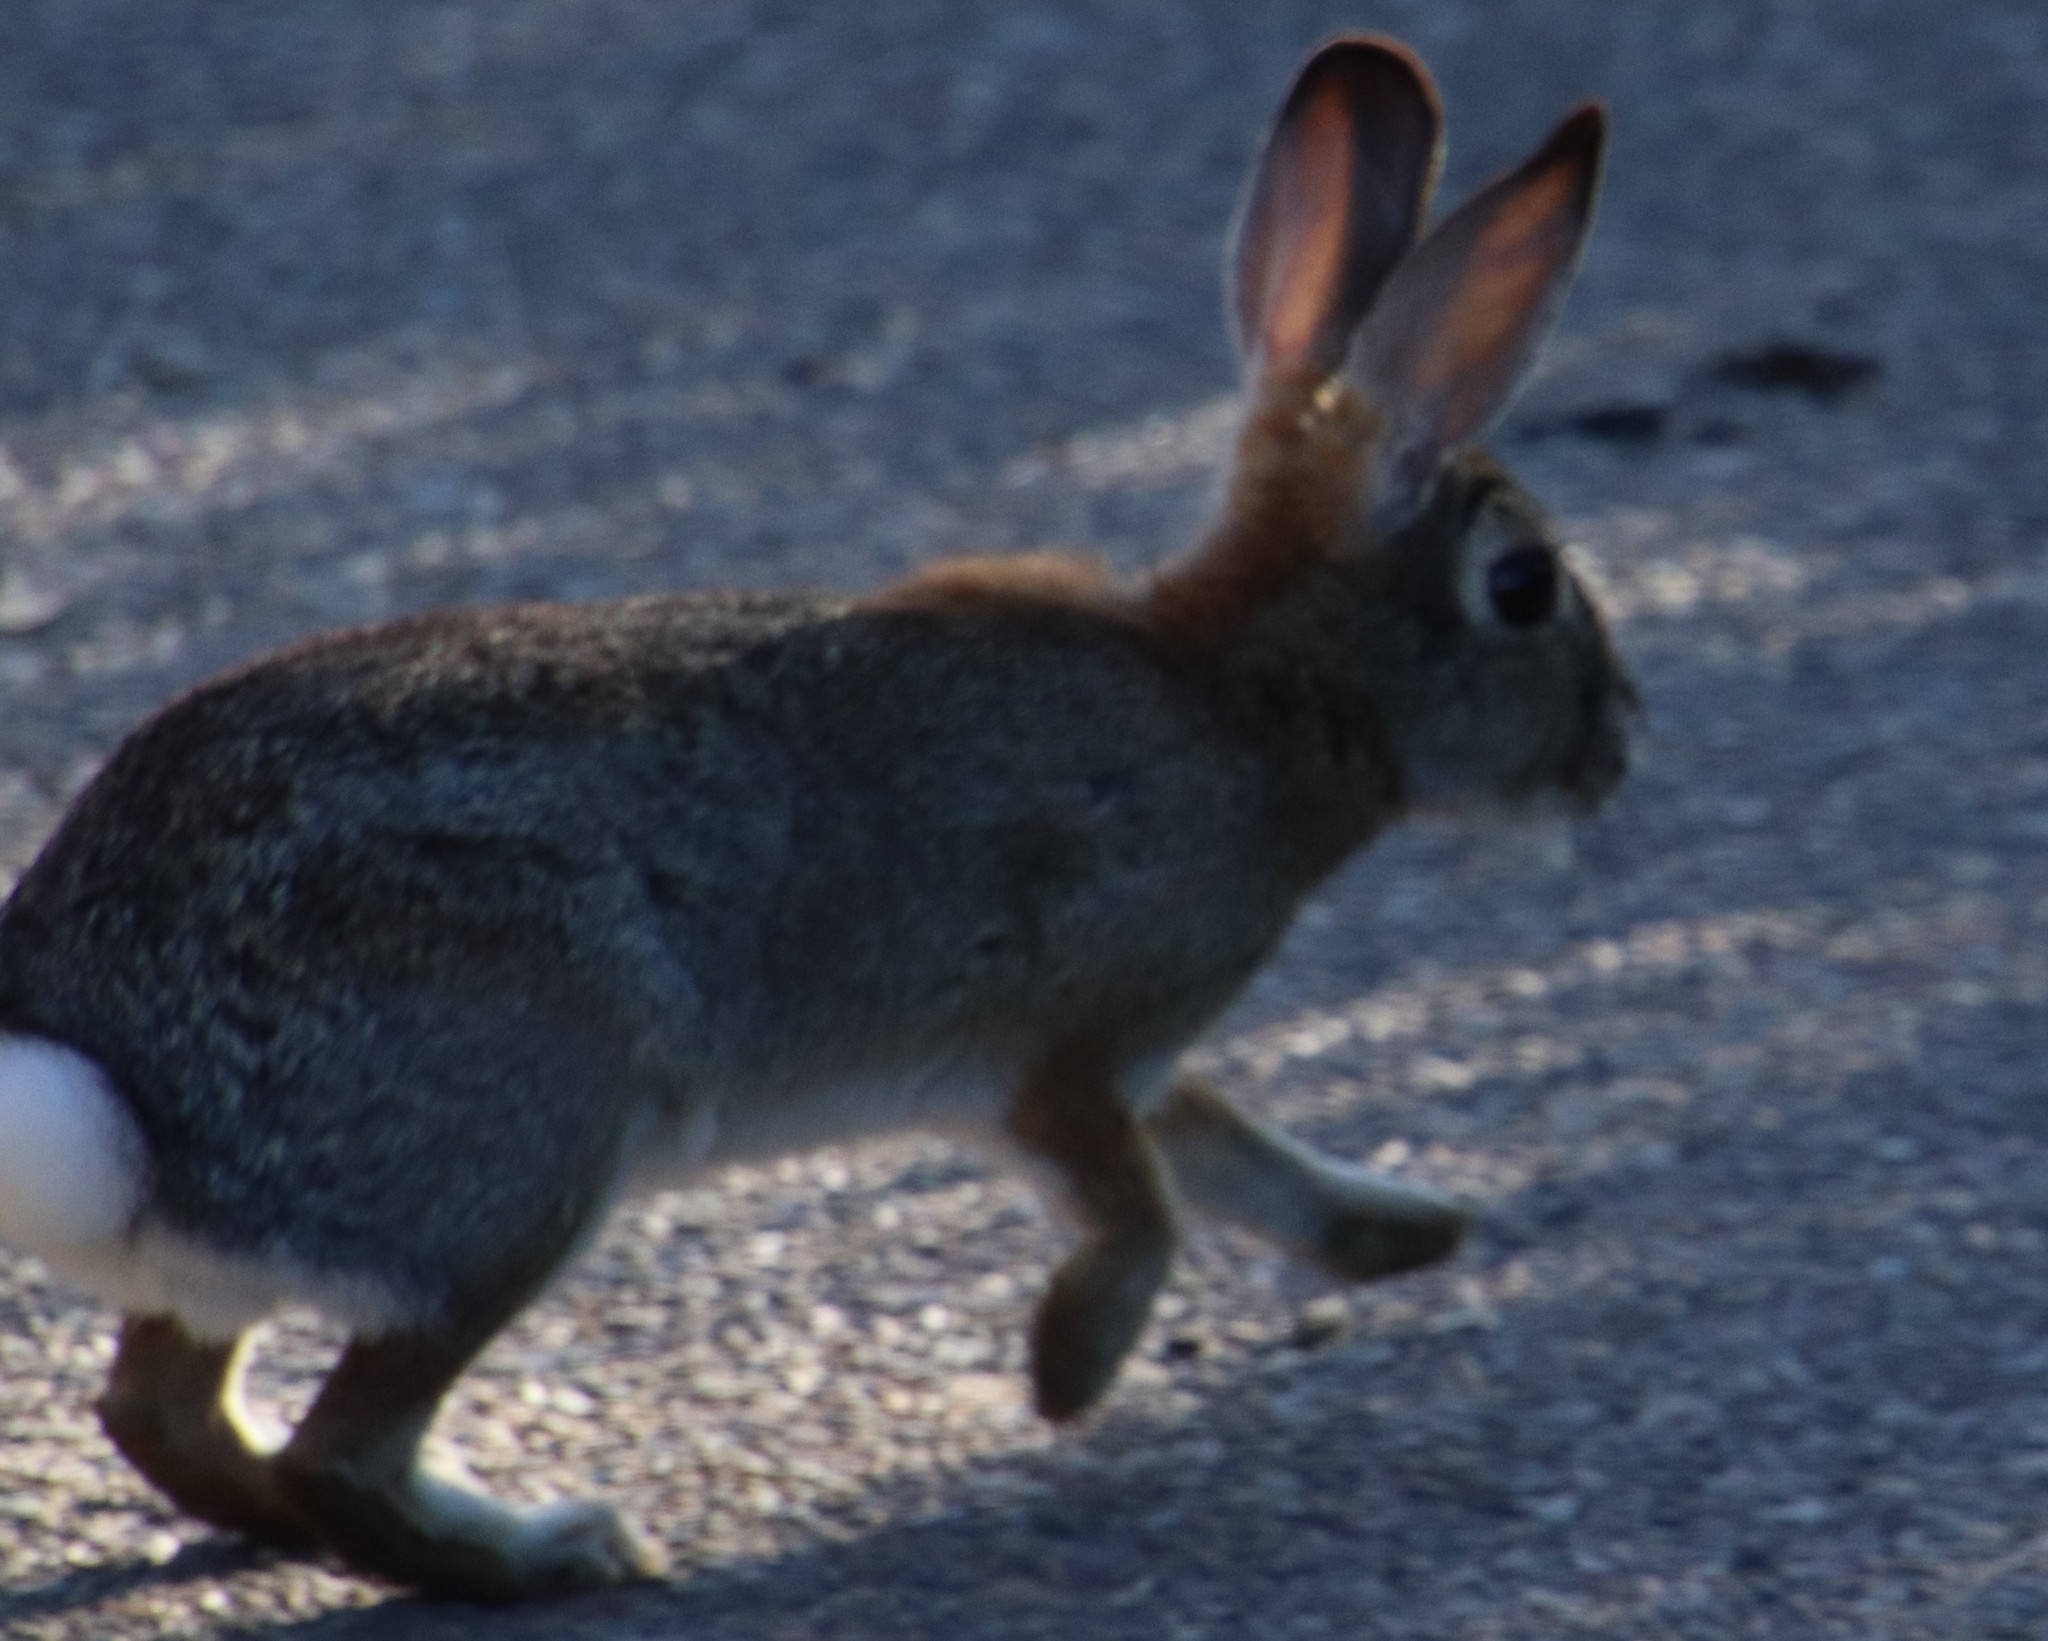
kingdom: Animalia
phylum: Chordata
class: Mammalia
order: Lagomorpha
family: Leporidae
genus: Sylvilagus
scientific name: Sylvilagus audubonii
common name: Desert cottontail
